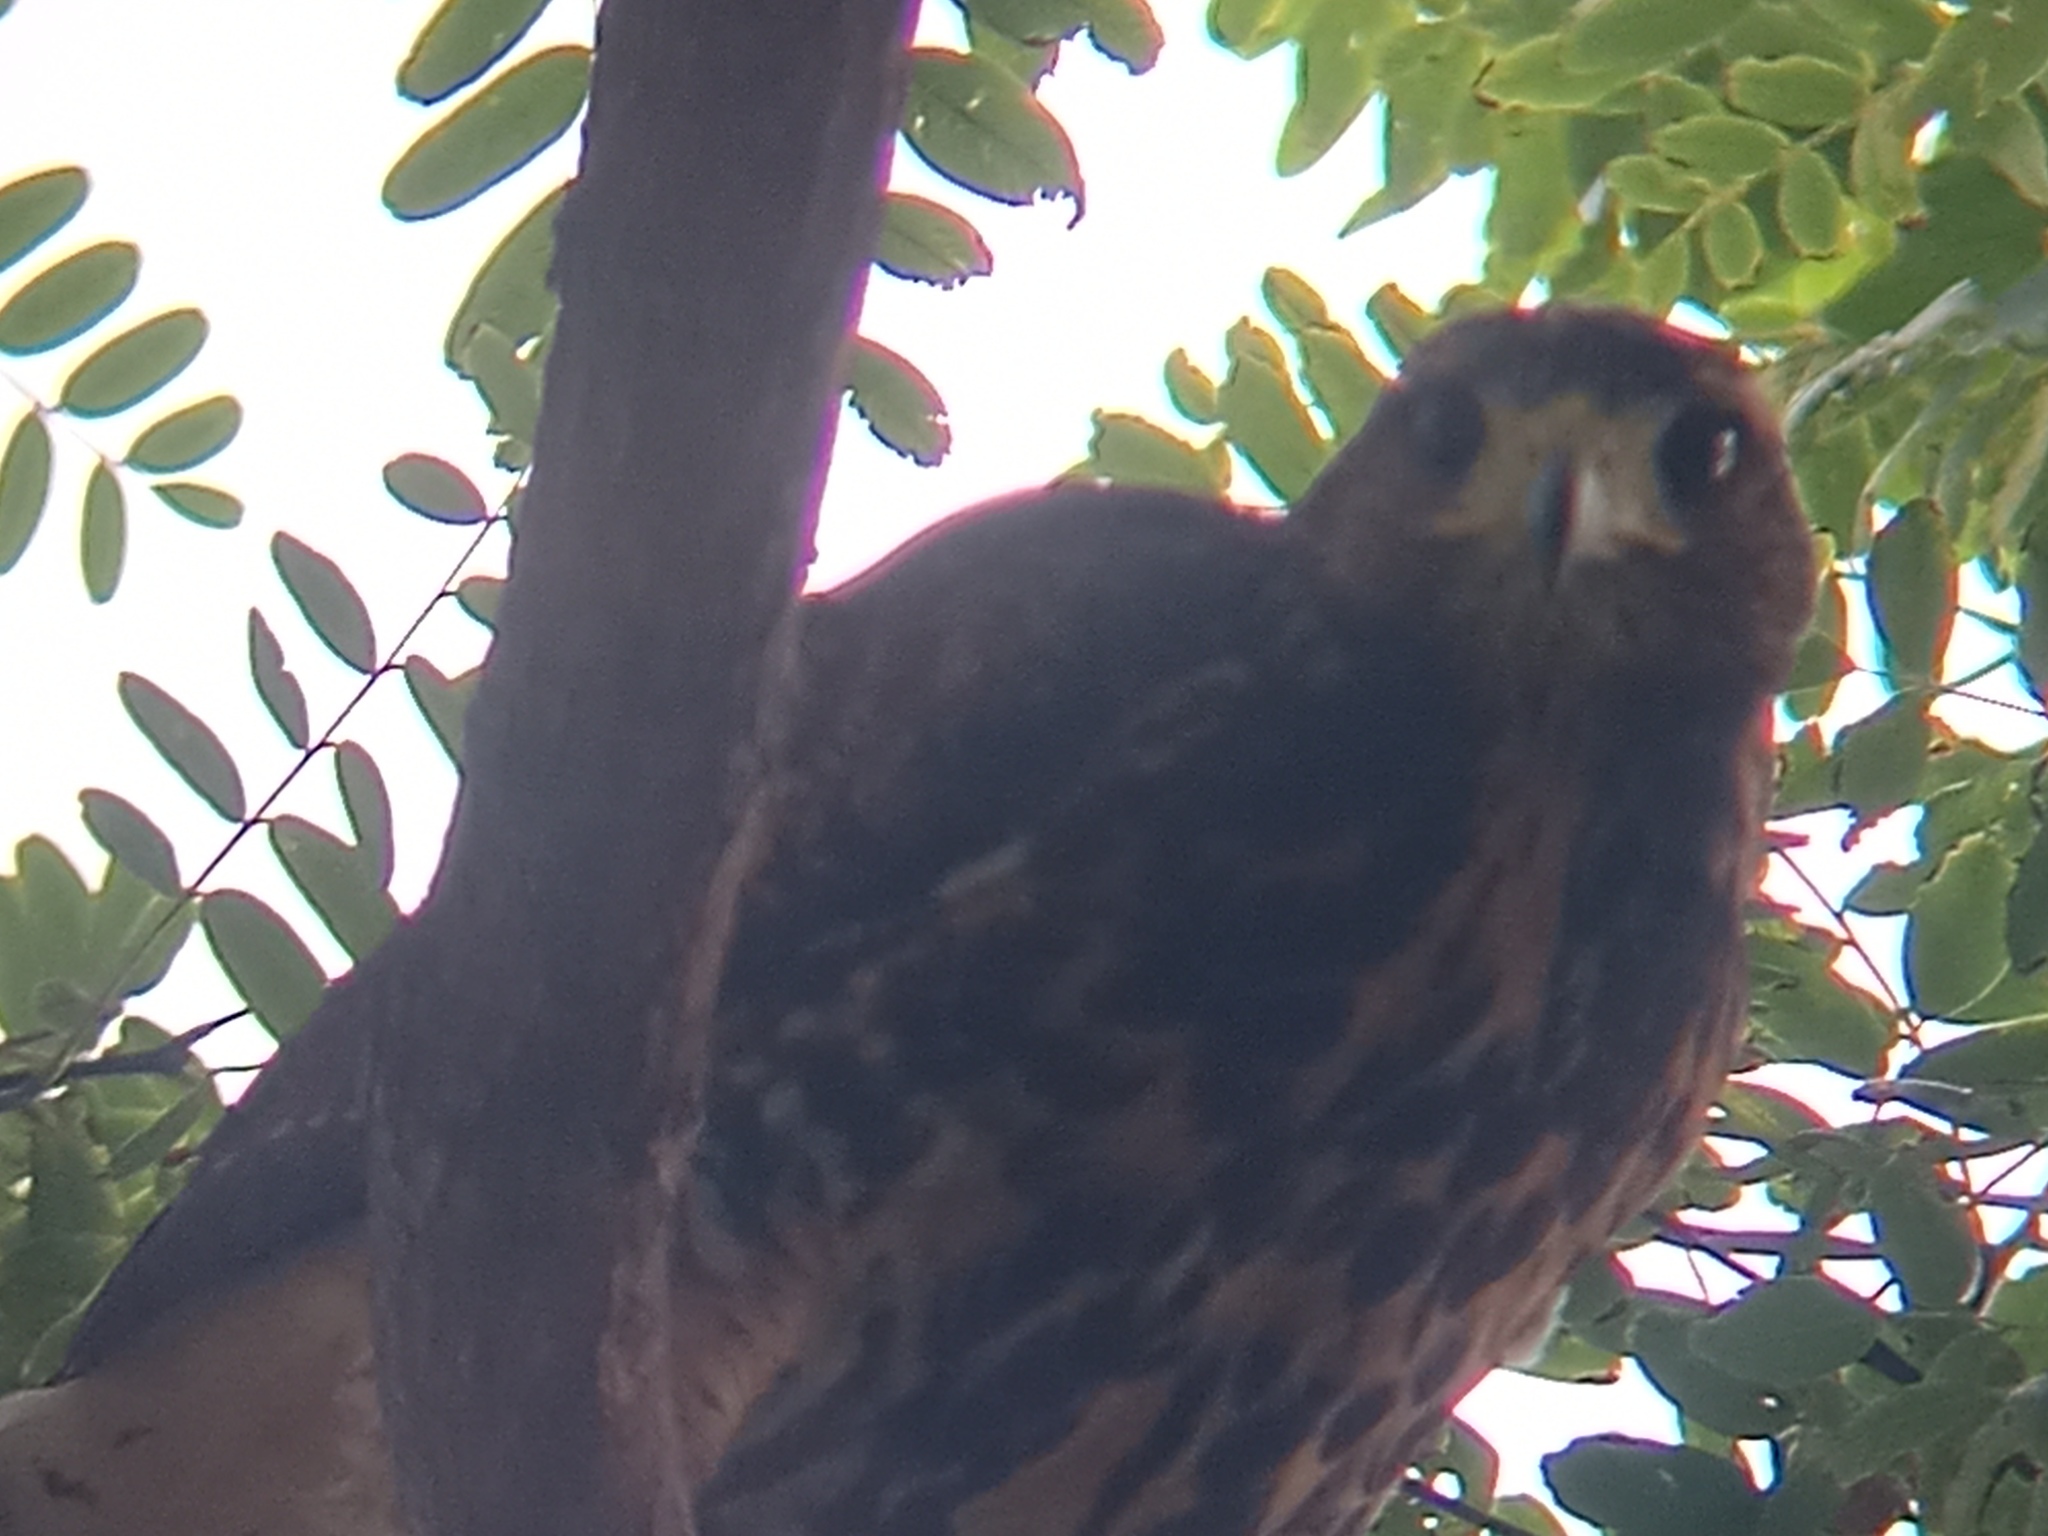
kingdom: Animalia
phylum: Chordata
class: Aves
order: Accipitriformes
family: Accipitridae
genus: Parabuteo
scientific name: Parabuteo unicinctus
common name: Harris's hawk
